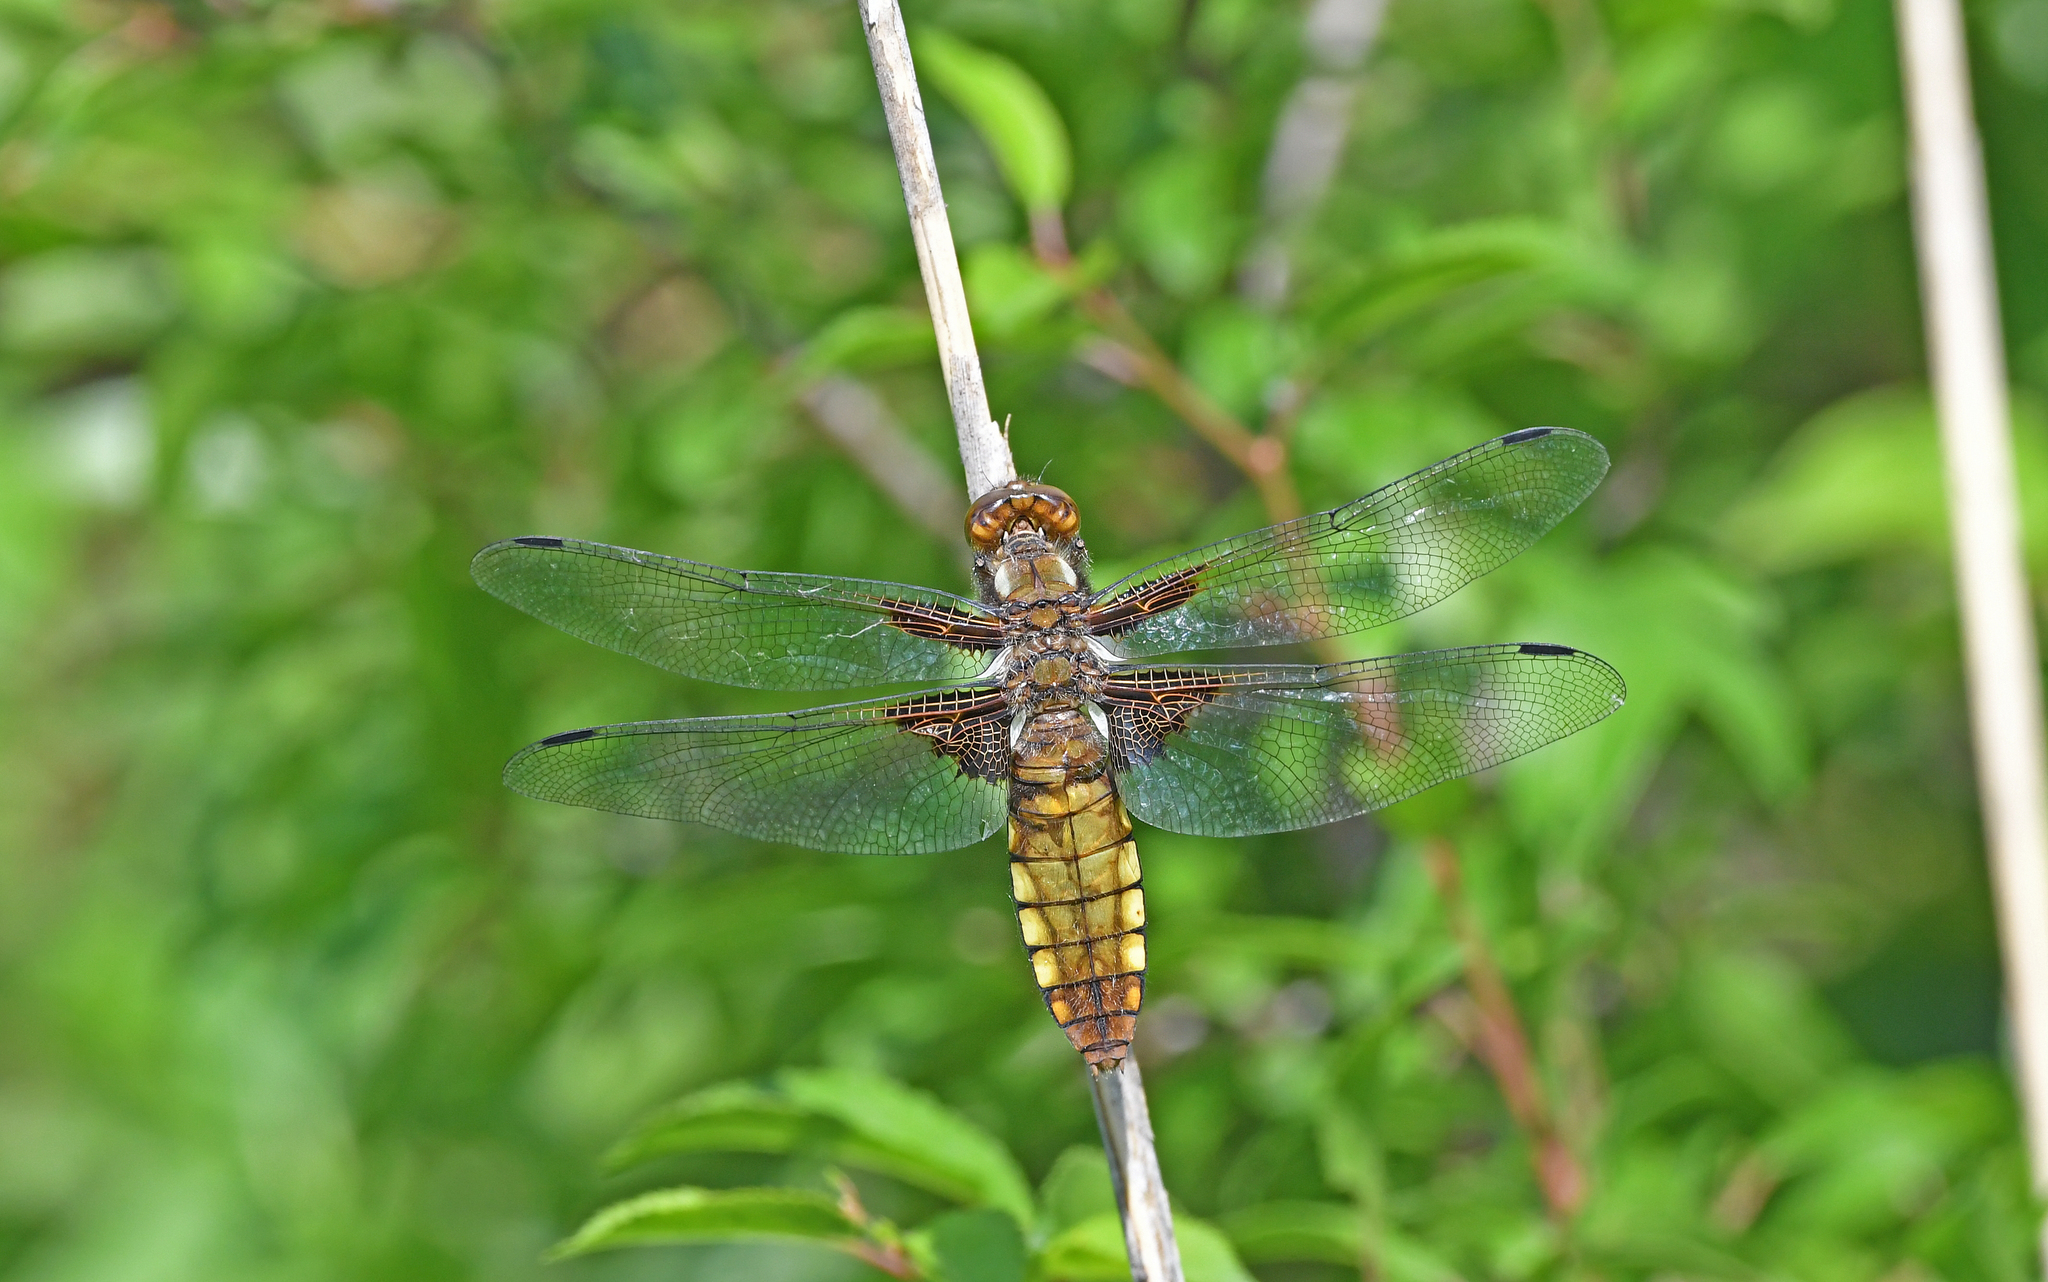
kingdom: Animalia
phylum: Arthropoda
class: Insecta
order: Odonata
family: Libellulidae
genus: Libellula
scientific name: Libellula depressa
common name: Broad-bodied chaser
